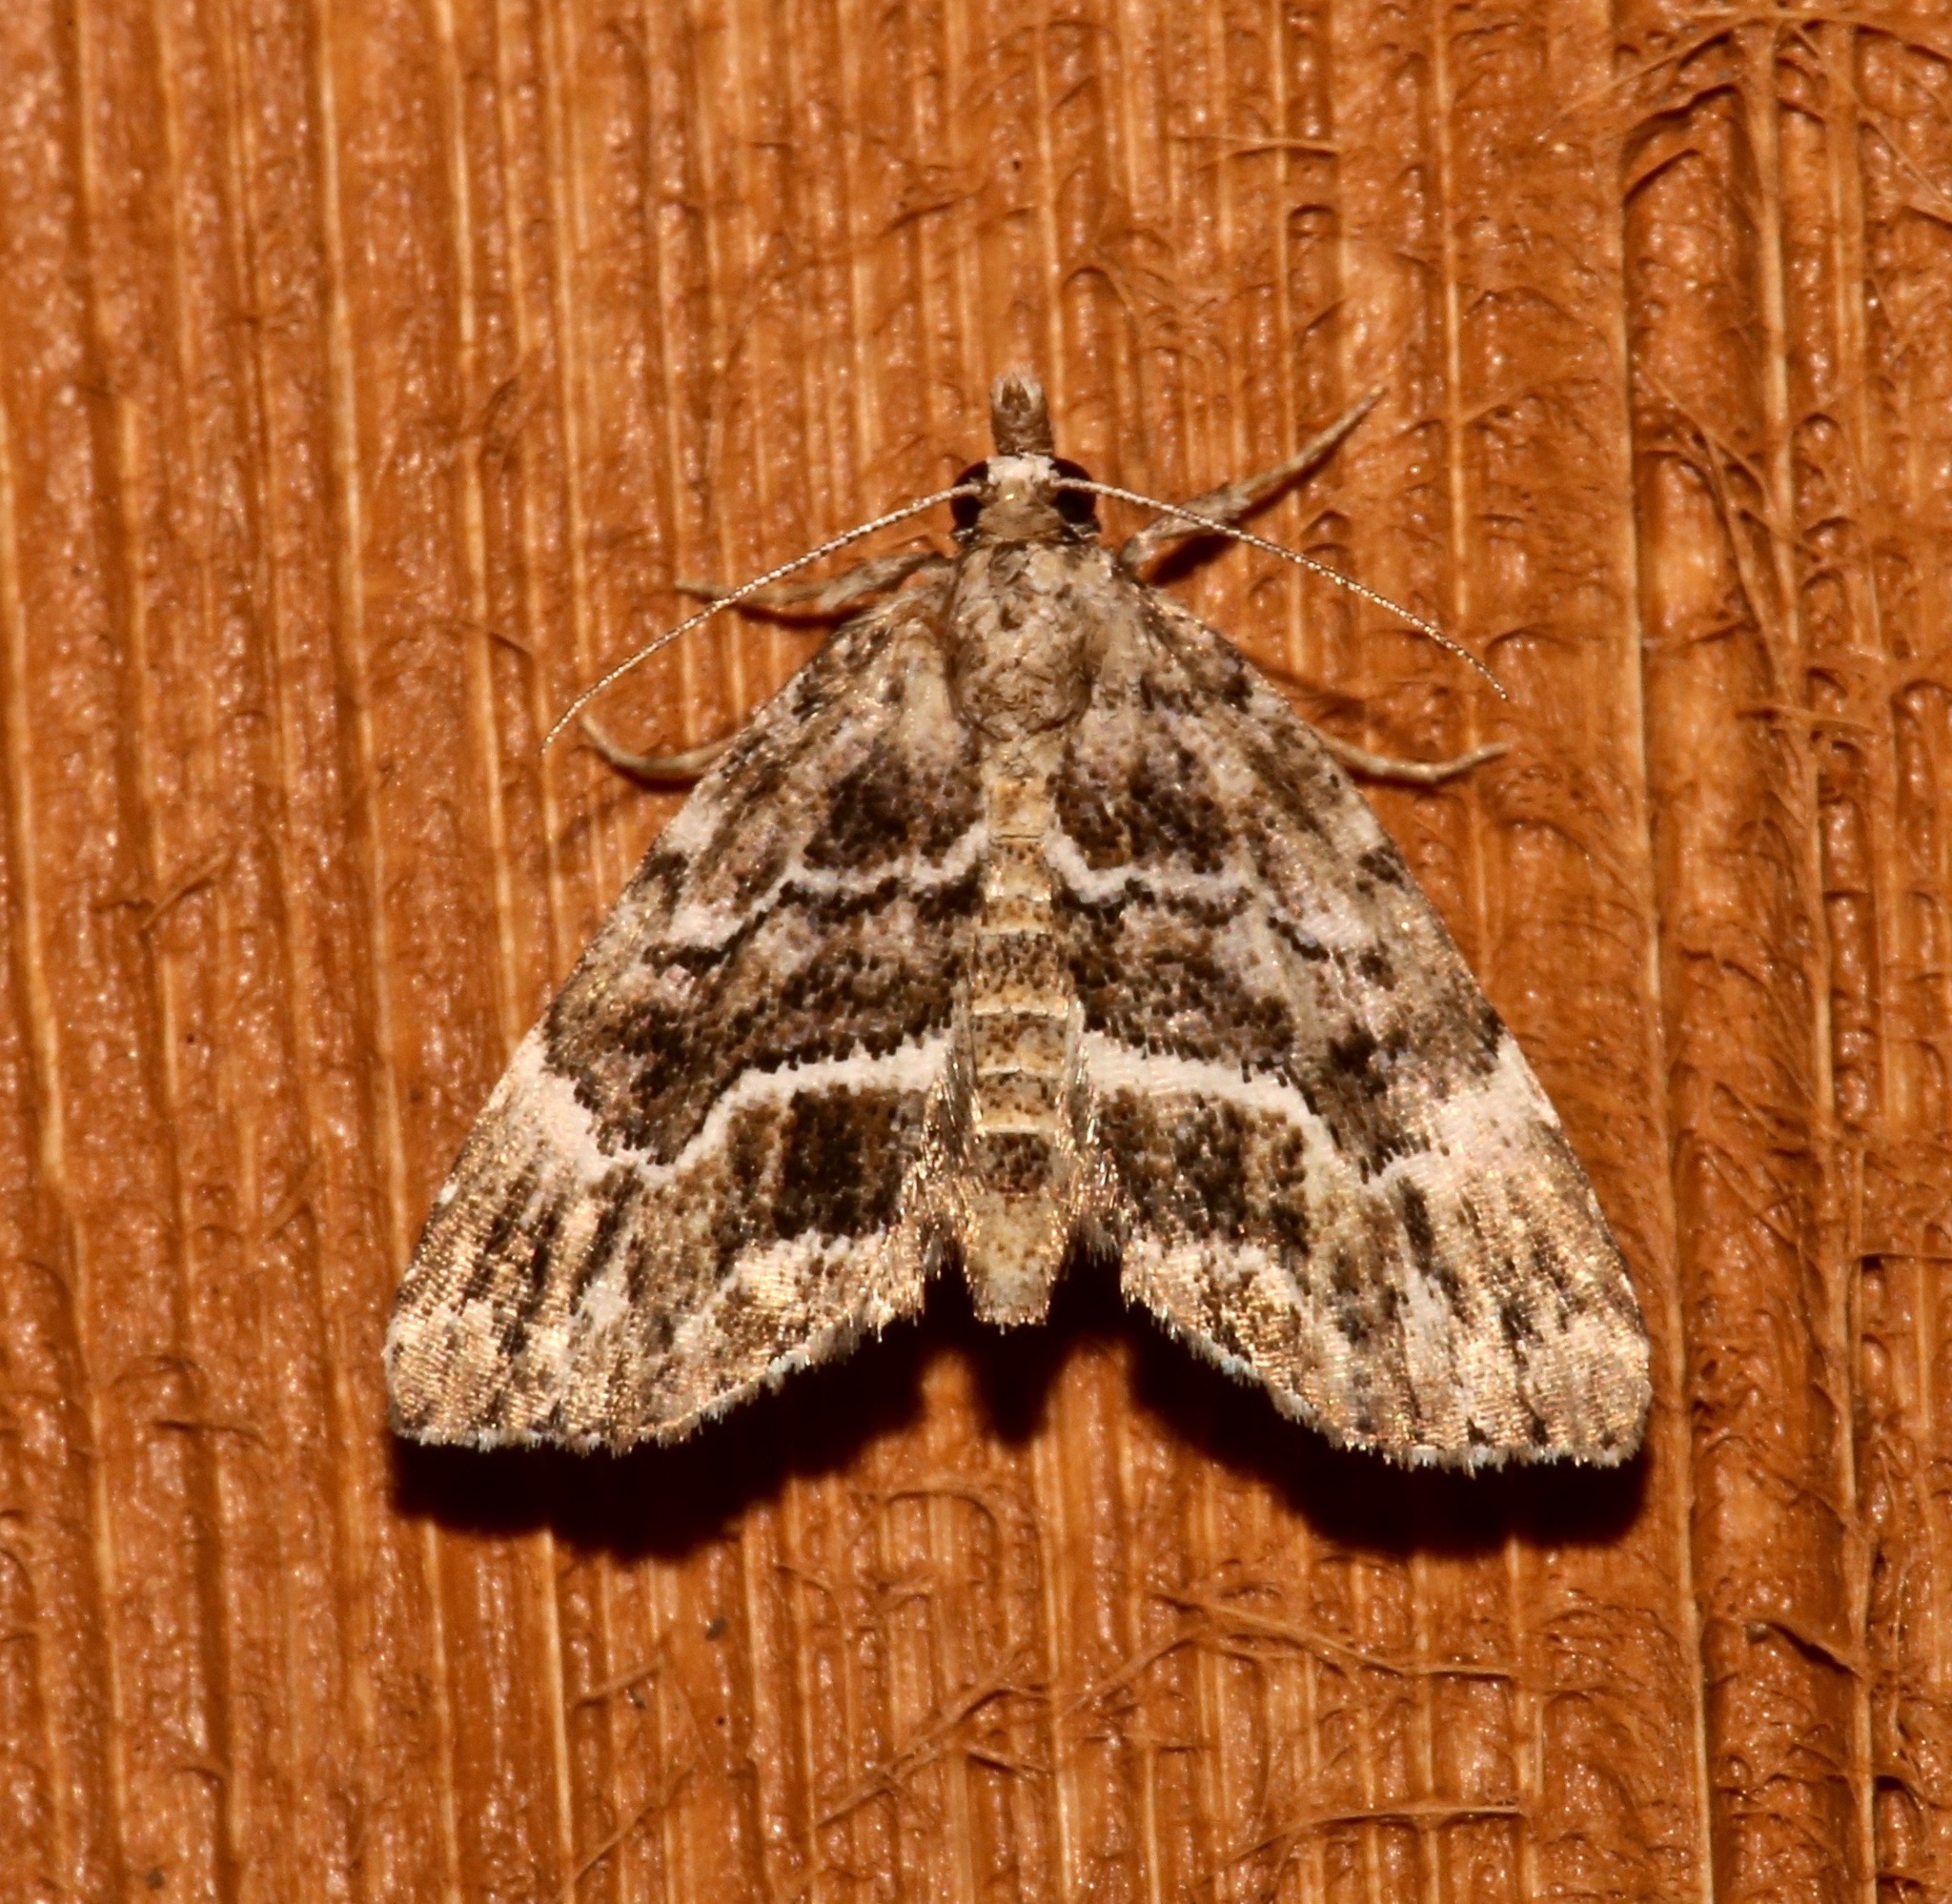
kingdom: Animalia
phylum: Arthropoda
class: Insecta
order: Lepidoptera
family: Erebidae
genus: Cutina
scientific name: Cutina arcuata
